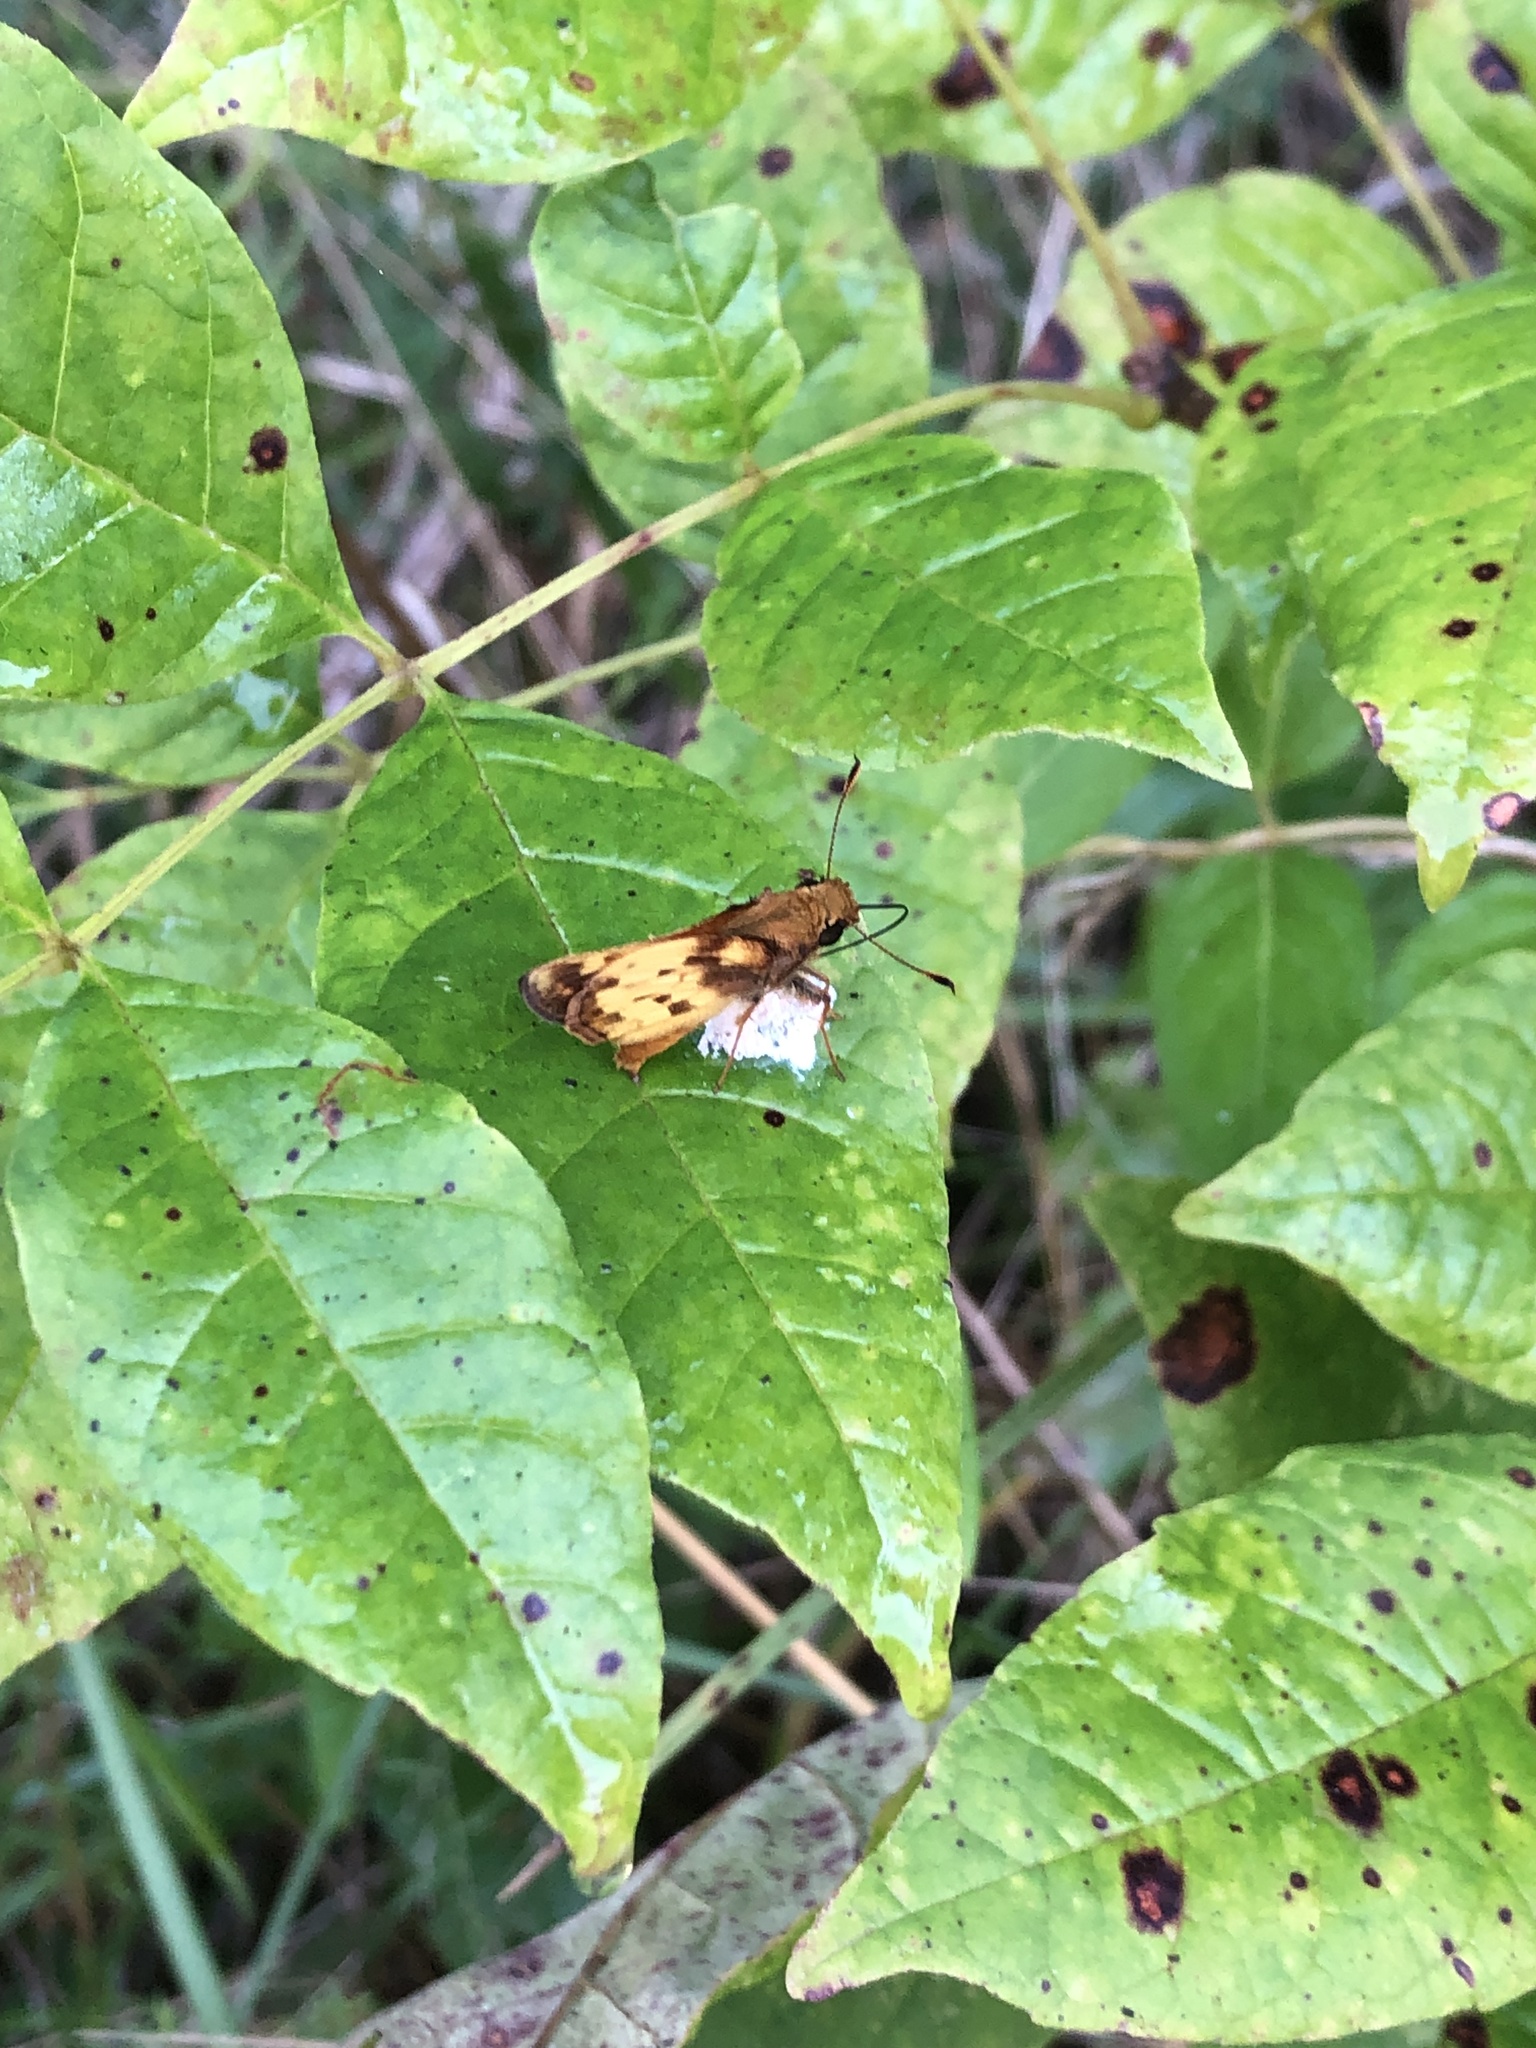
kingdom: Animalia
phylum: Arthropoda
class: Insecta
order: Lepidoptera
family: Hesperiidae
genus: Lon
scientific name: Lon zabulon
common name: Zabulon skipper
